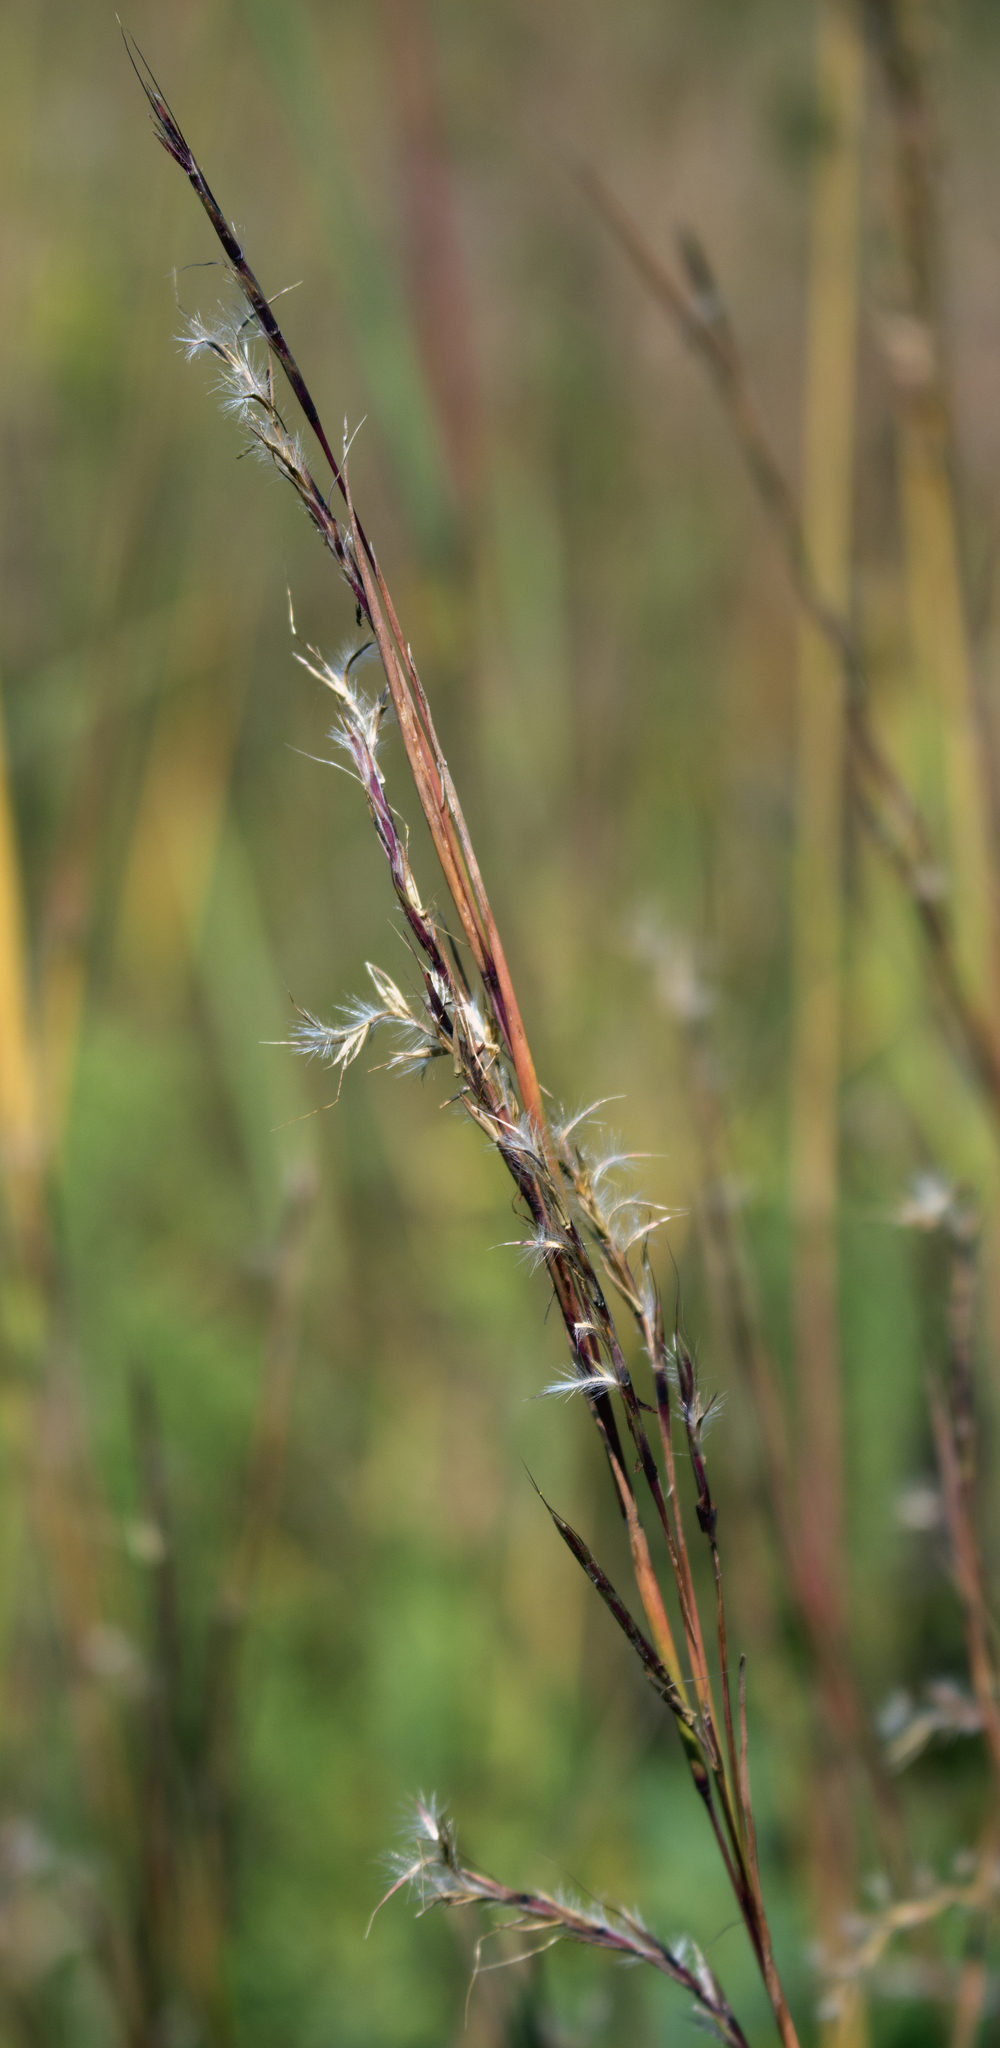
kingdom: Plantae
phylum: Tracheophyta
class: Liliopsida
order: Poales
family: Poaceae
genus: Schizachyrium
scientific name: Schizachyrium scoparium
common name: Little bluestem
